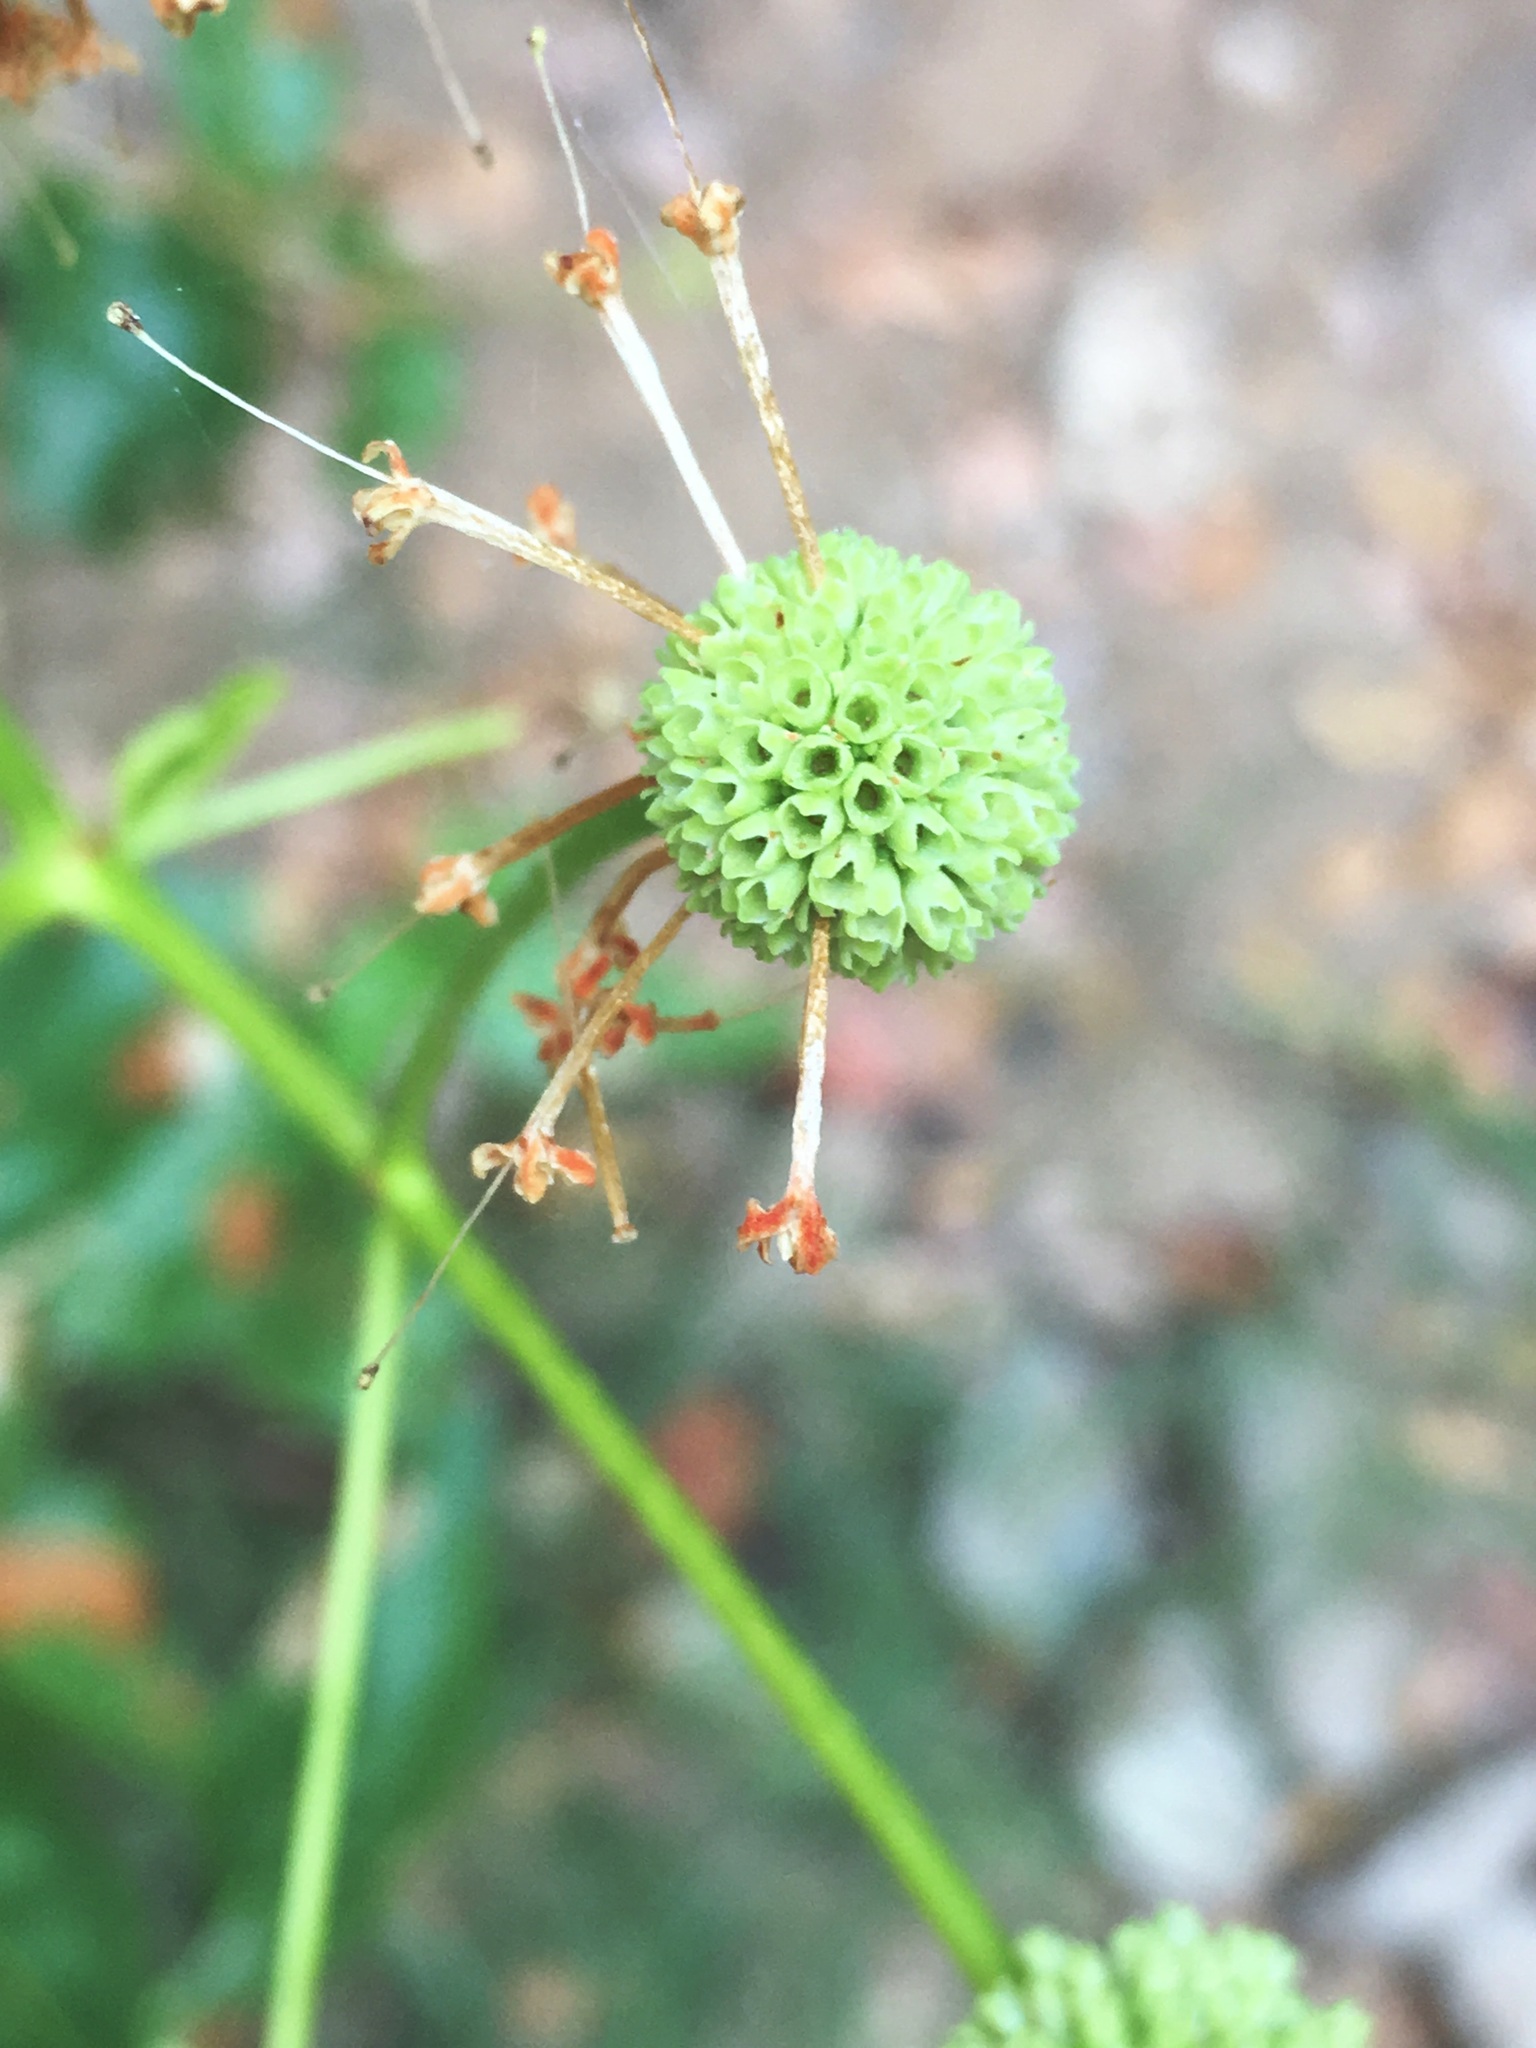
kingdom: Plantae
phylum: Tracheophyta
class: Magnoliopsida
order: Gentianales
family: Rubiaceae
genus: Cephalanthus
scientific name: Cephalanthus occidentalis
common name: Button-willow
